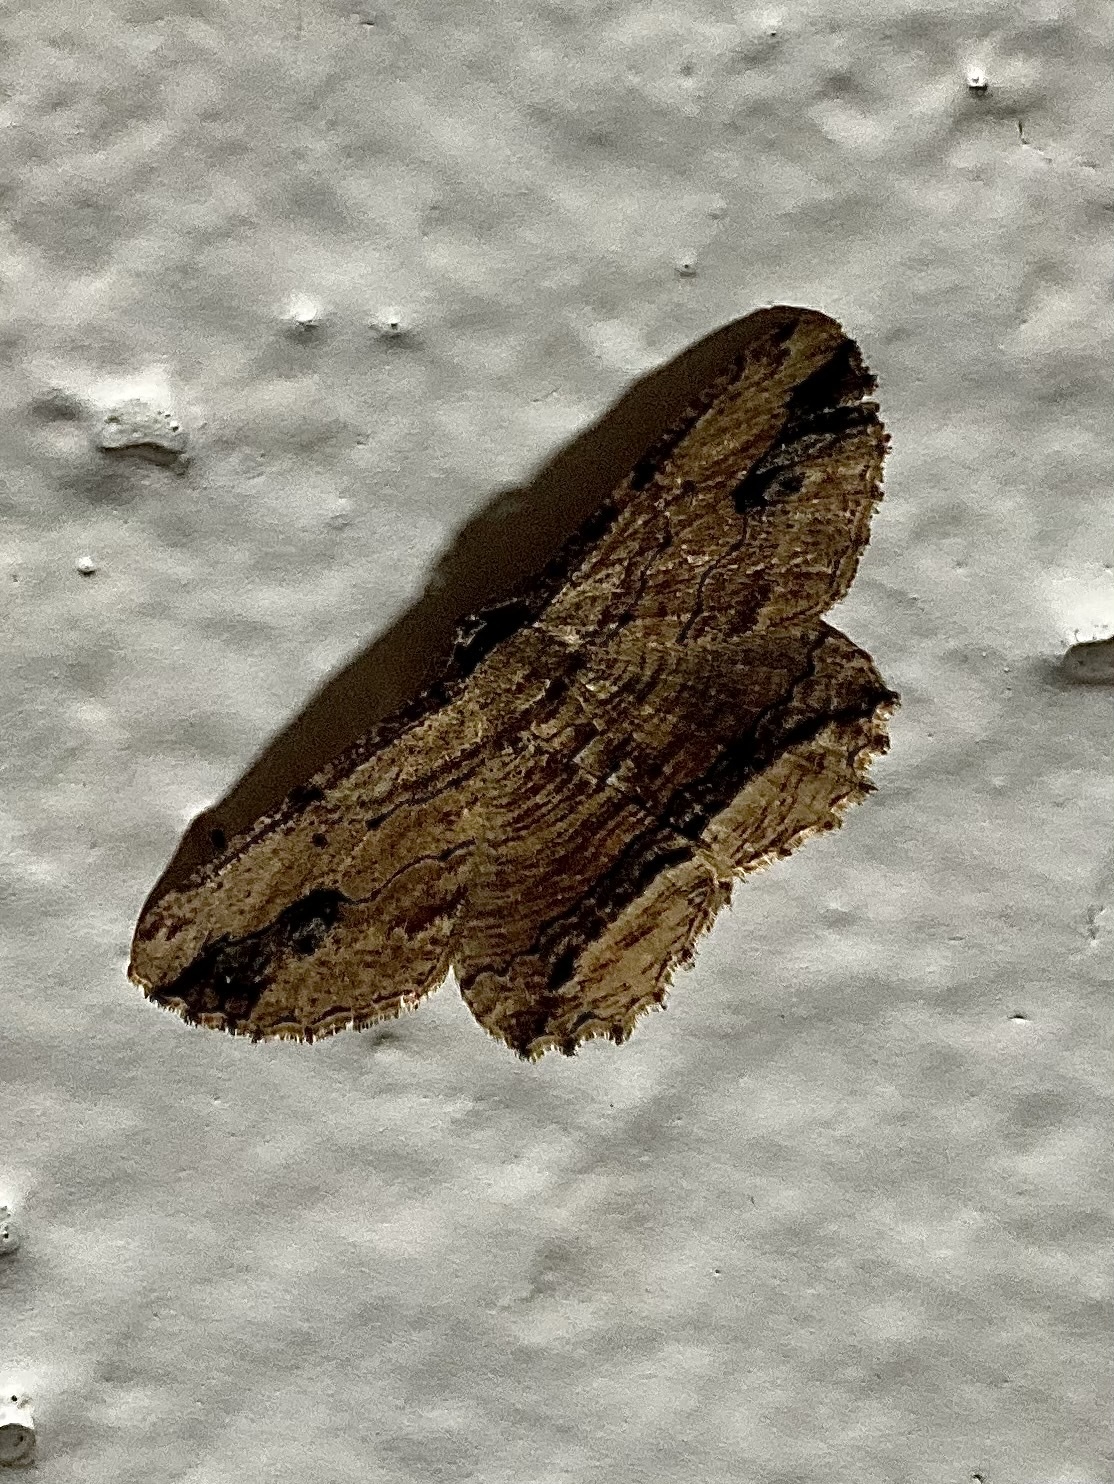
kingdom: Animalia
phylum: Arthropoda
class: Insecta
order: Lepidoptera
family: Geometridae
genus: Menophra
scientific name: Menophra abruptaria
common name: Waved umber
